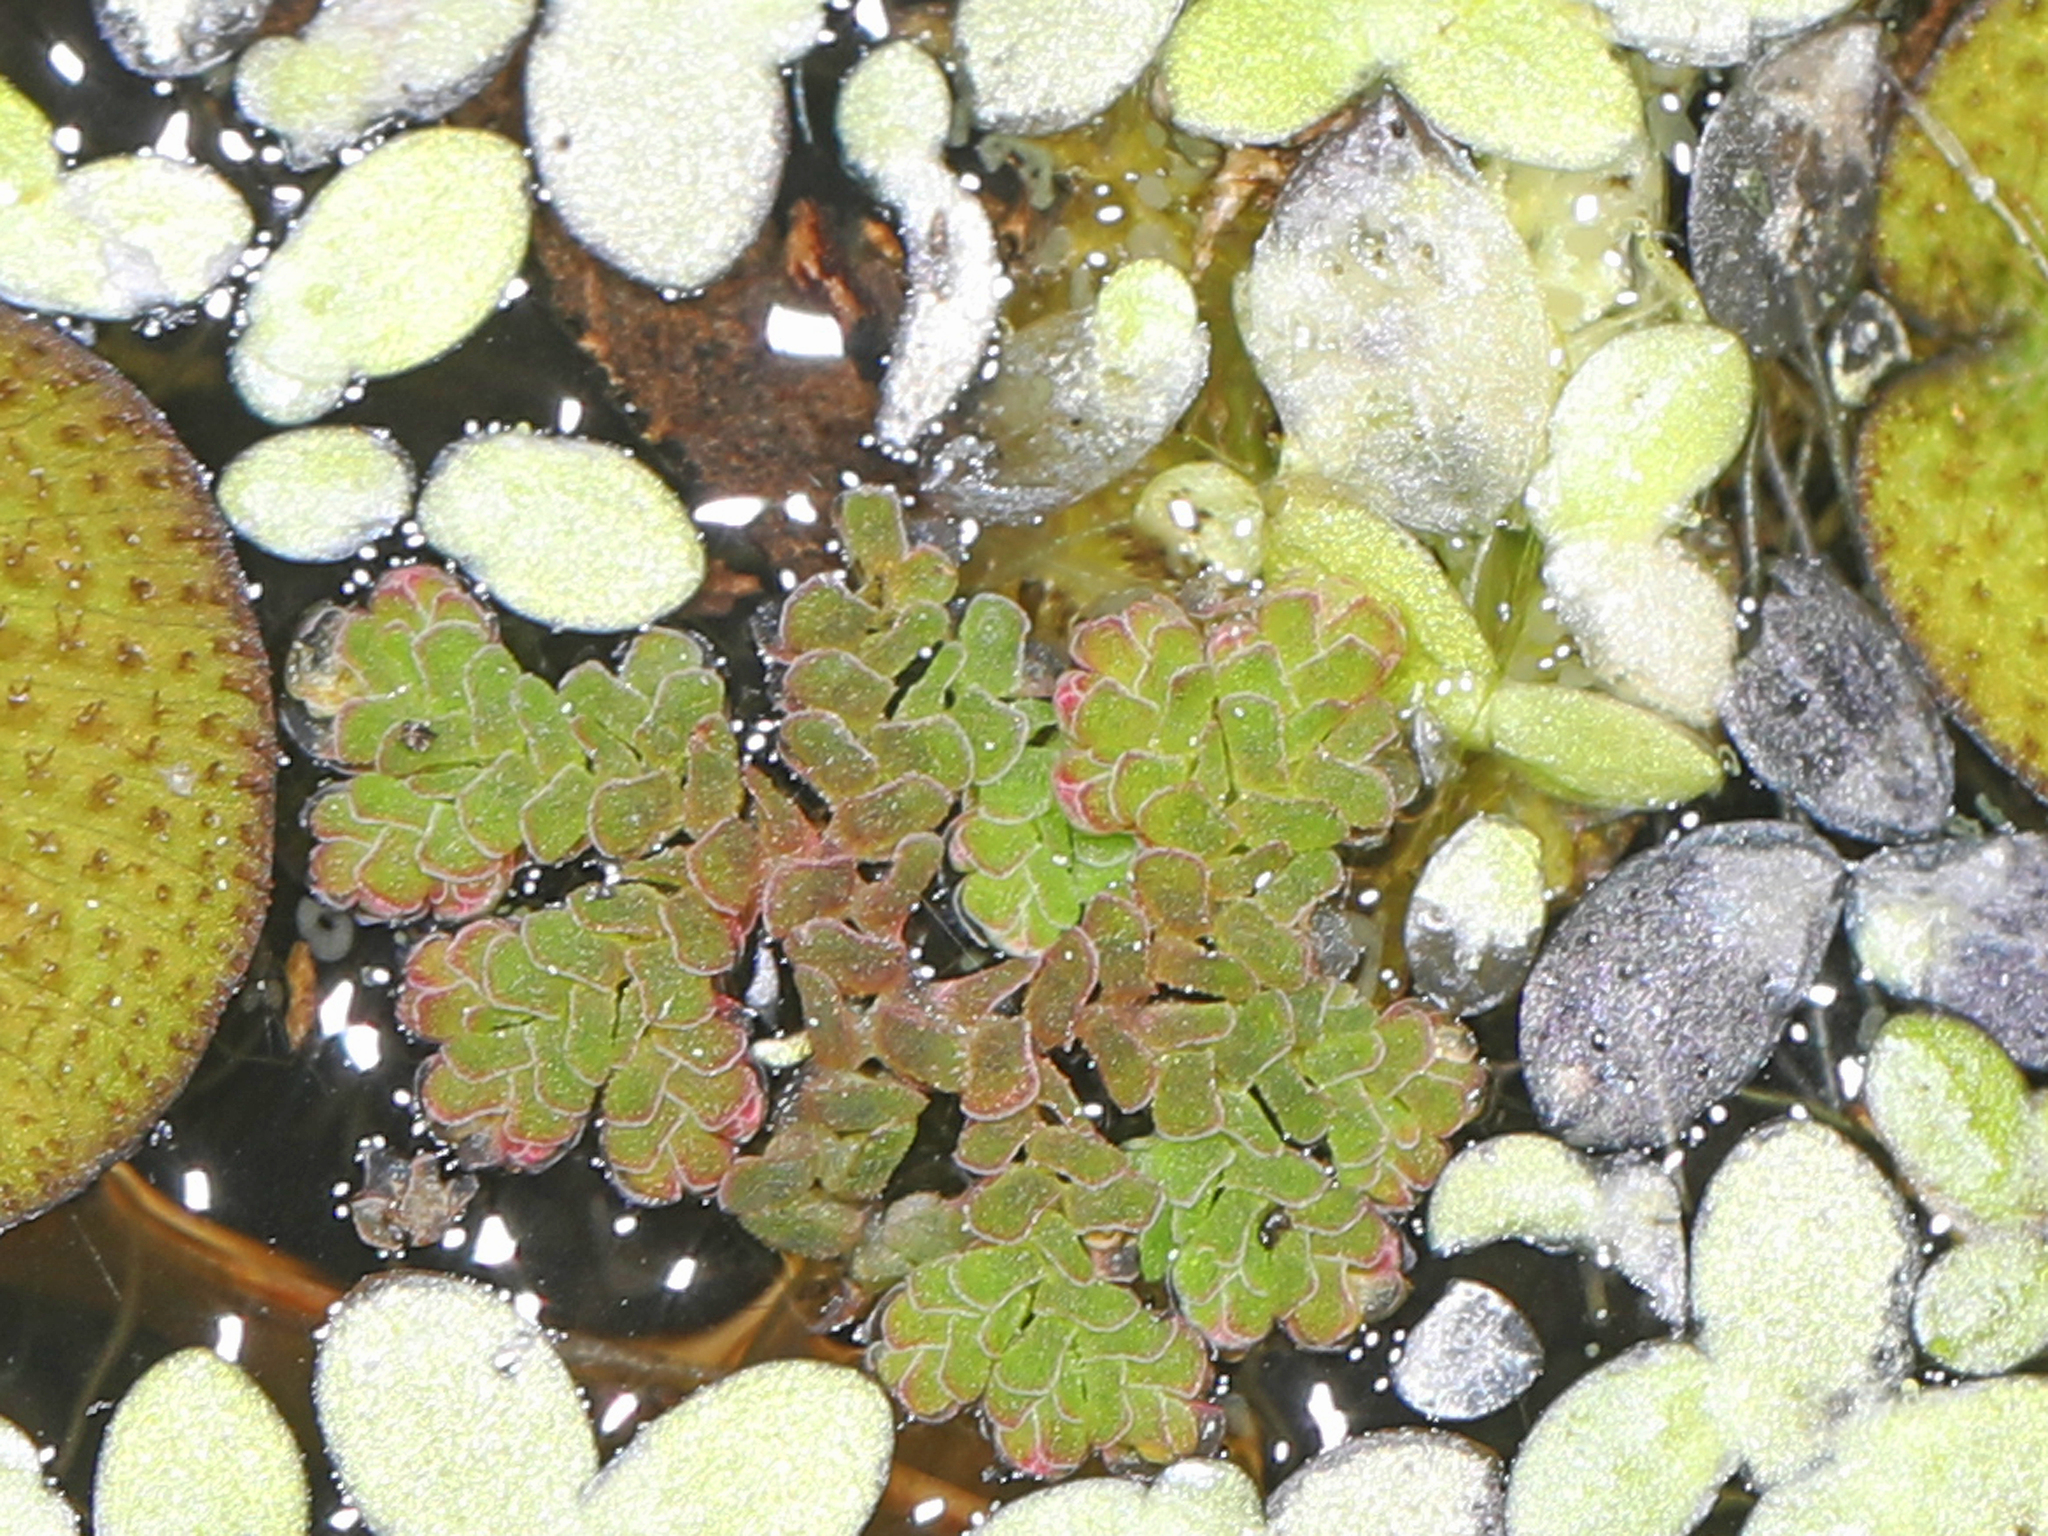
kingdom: Plantae
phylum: Tracheophyta
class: Polypodiopsida
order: Salviniales
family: Salviniaceae
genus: Azolla
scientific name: Azolla caroliniana
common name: Carolina mosquitofern
